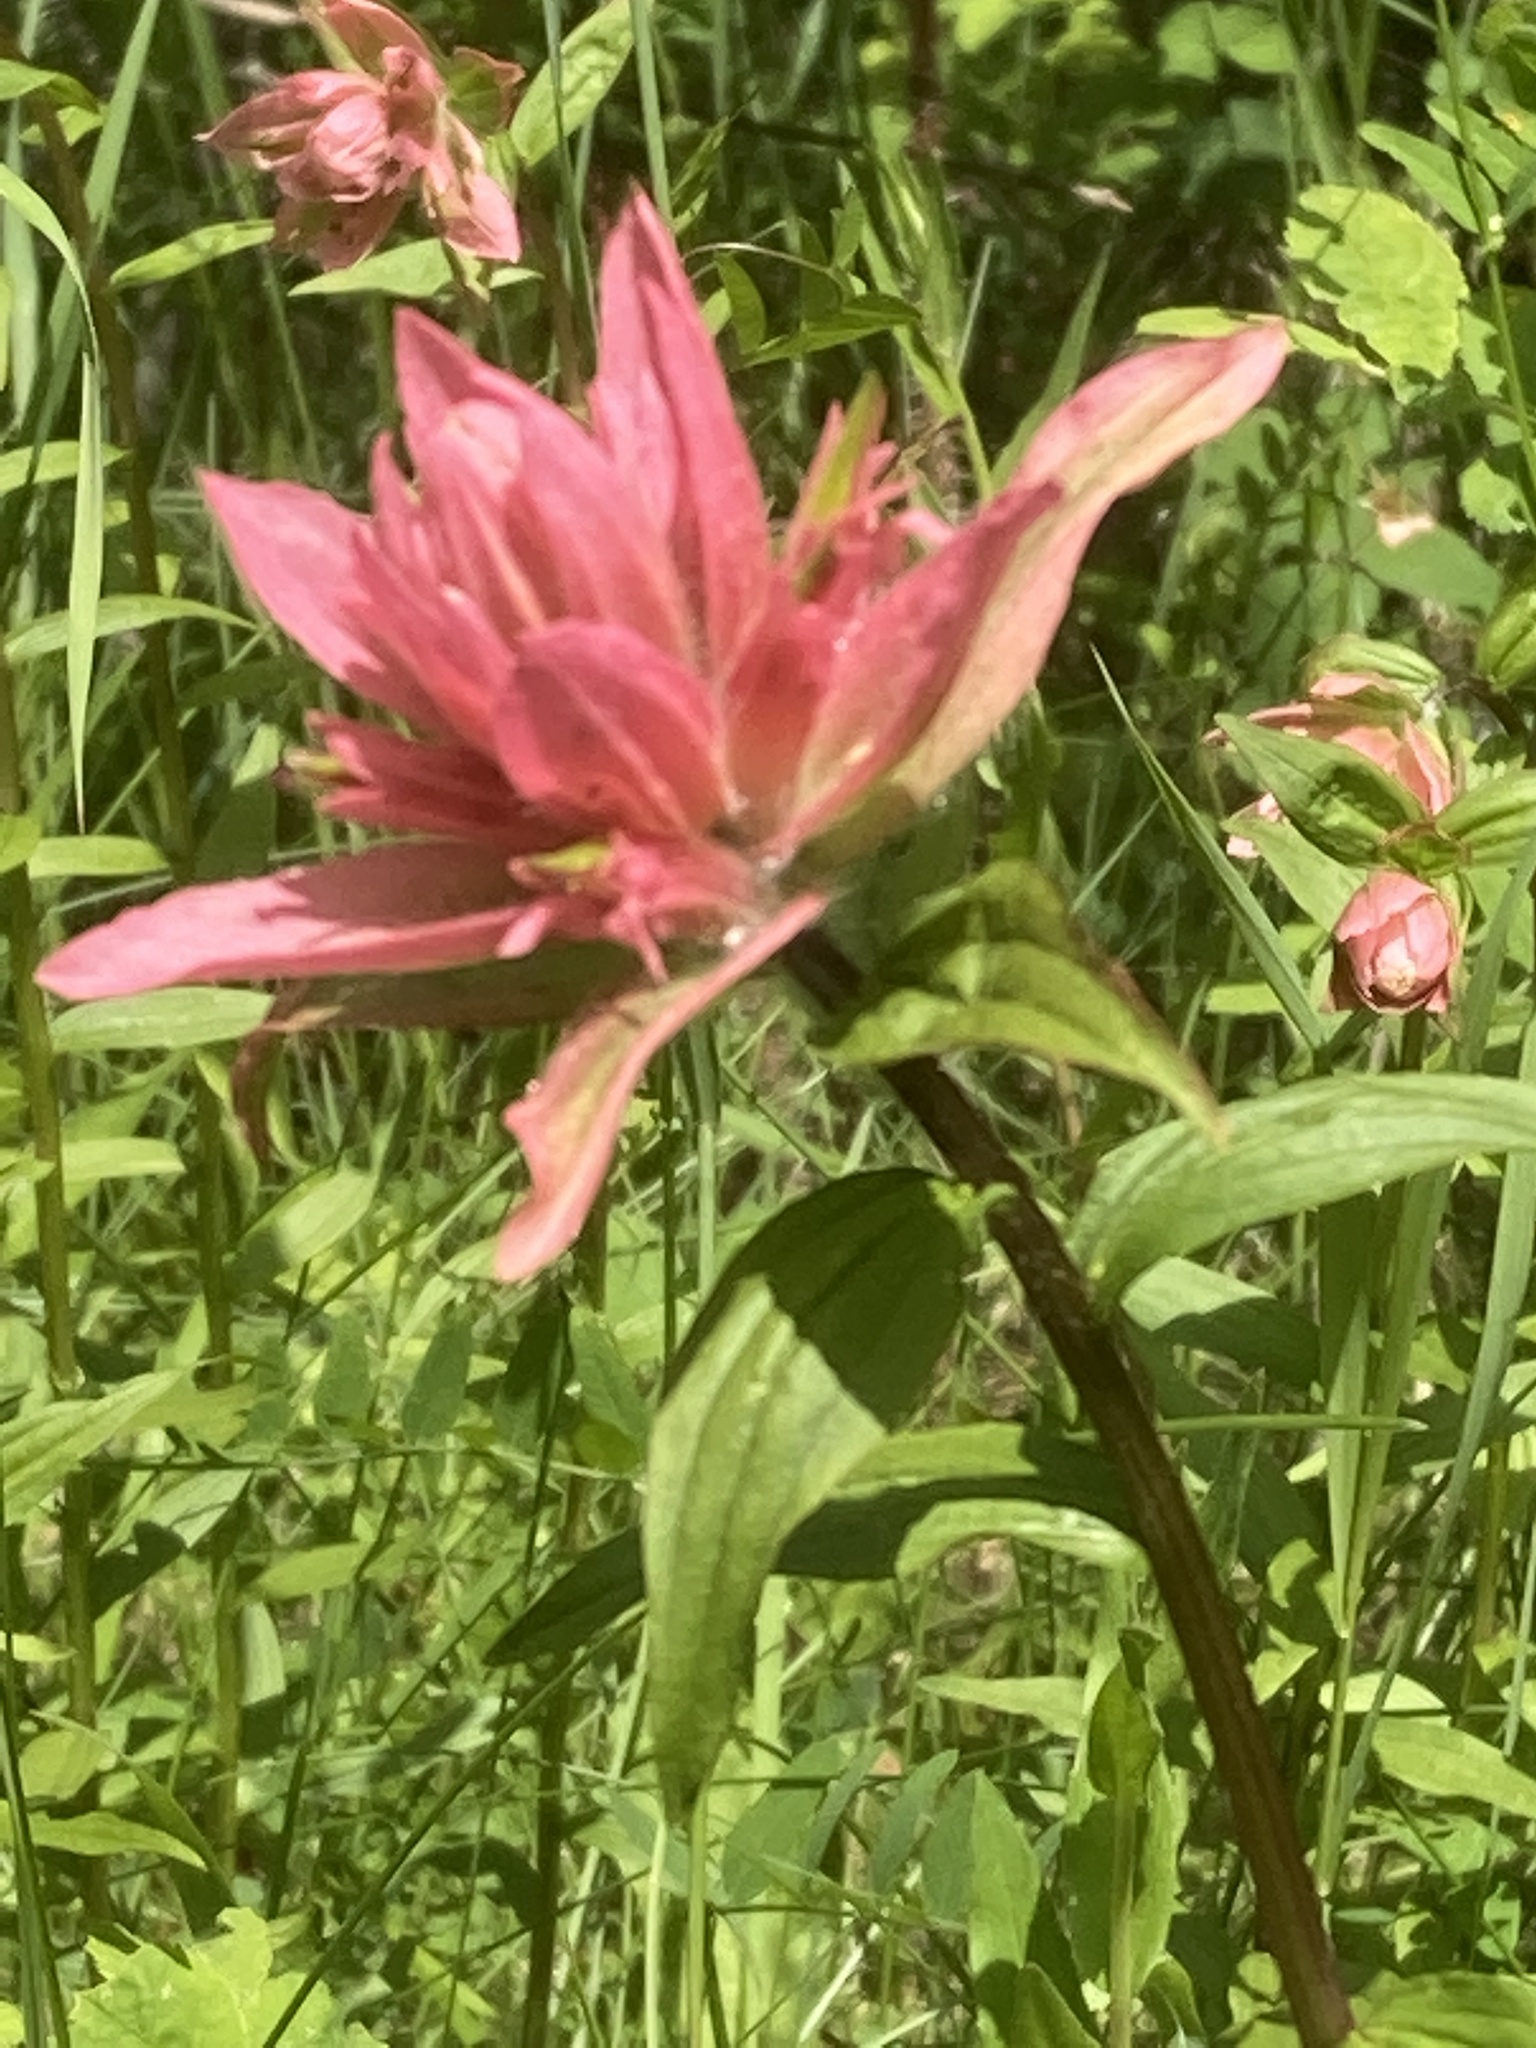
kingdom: Plantae
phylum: Tracheophyta
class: Magnoliopsida
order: Lamiales
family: Orobanchaceae
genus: Castilleja
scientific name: Castilleja miniata
